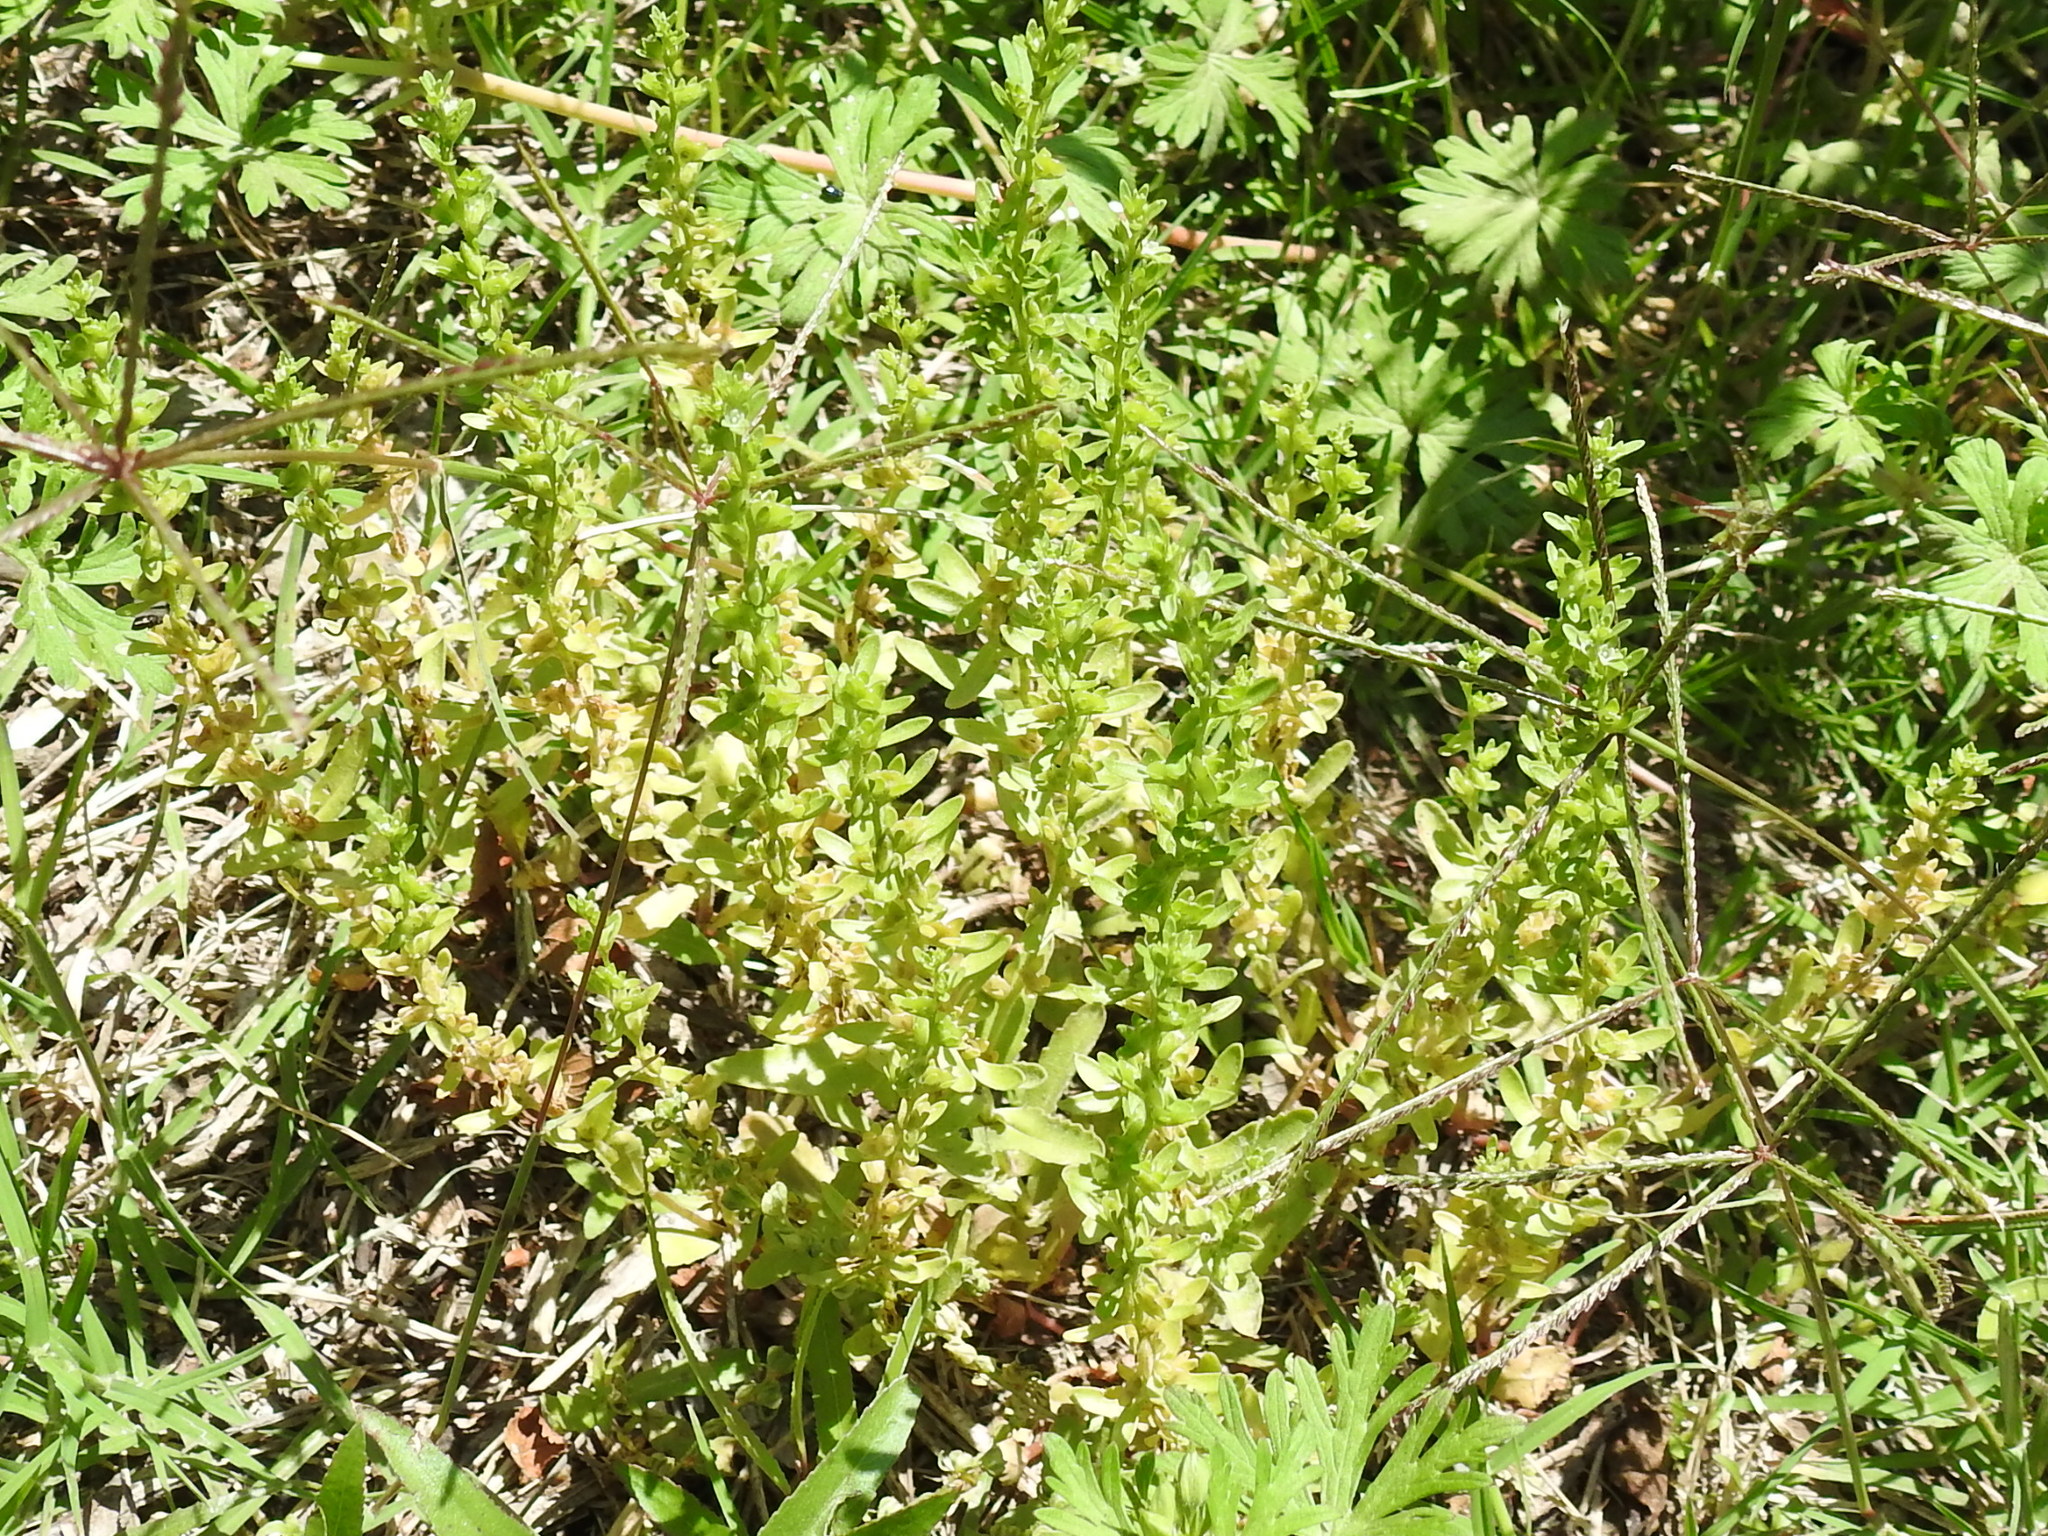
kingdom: Plantae
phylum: Tracheophyta
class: Magnoliopsida
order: Lamiales
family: Plantaginaceae
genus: Veronica
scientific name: Veronica peregrina
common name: Neckweed
